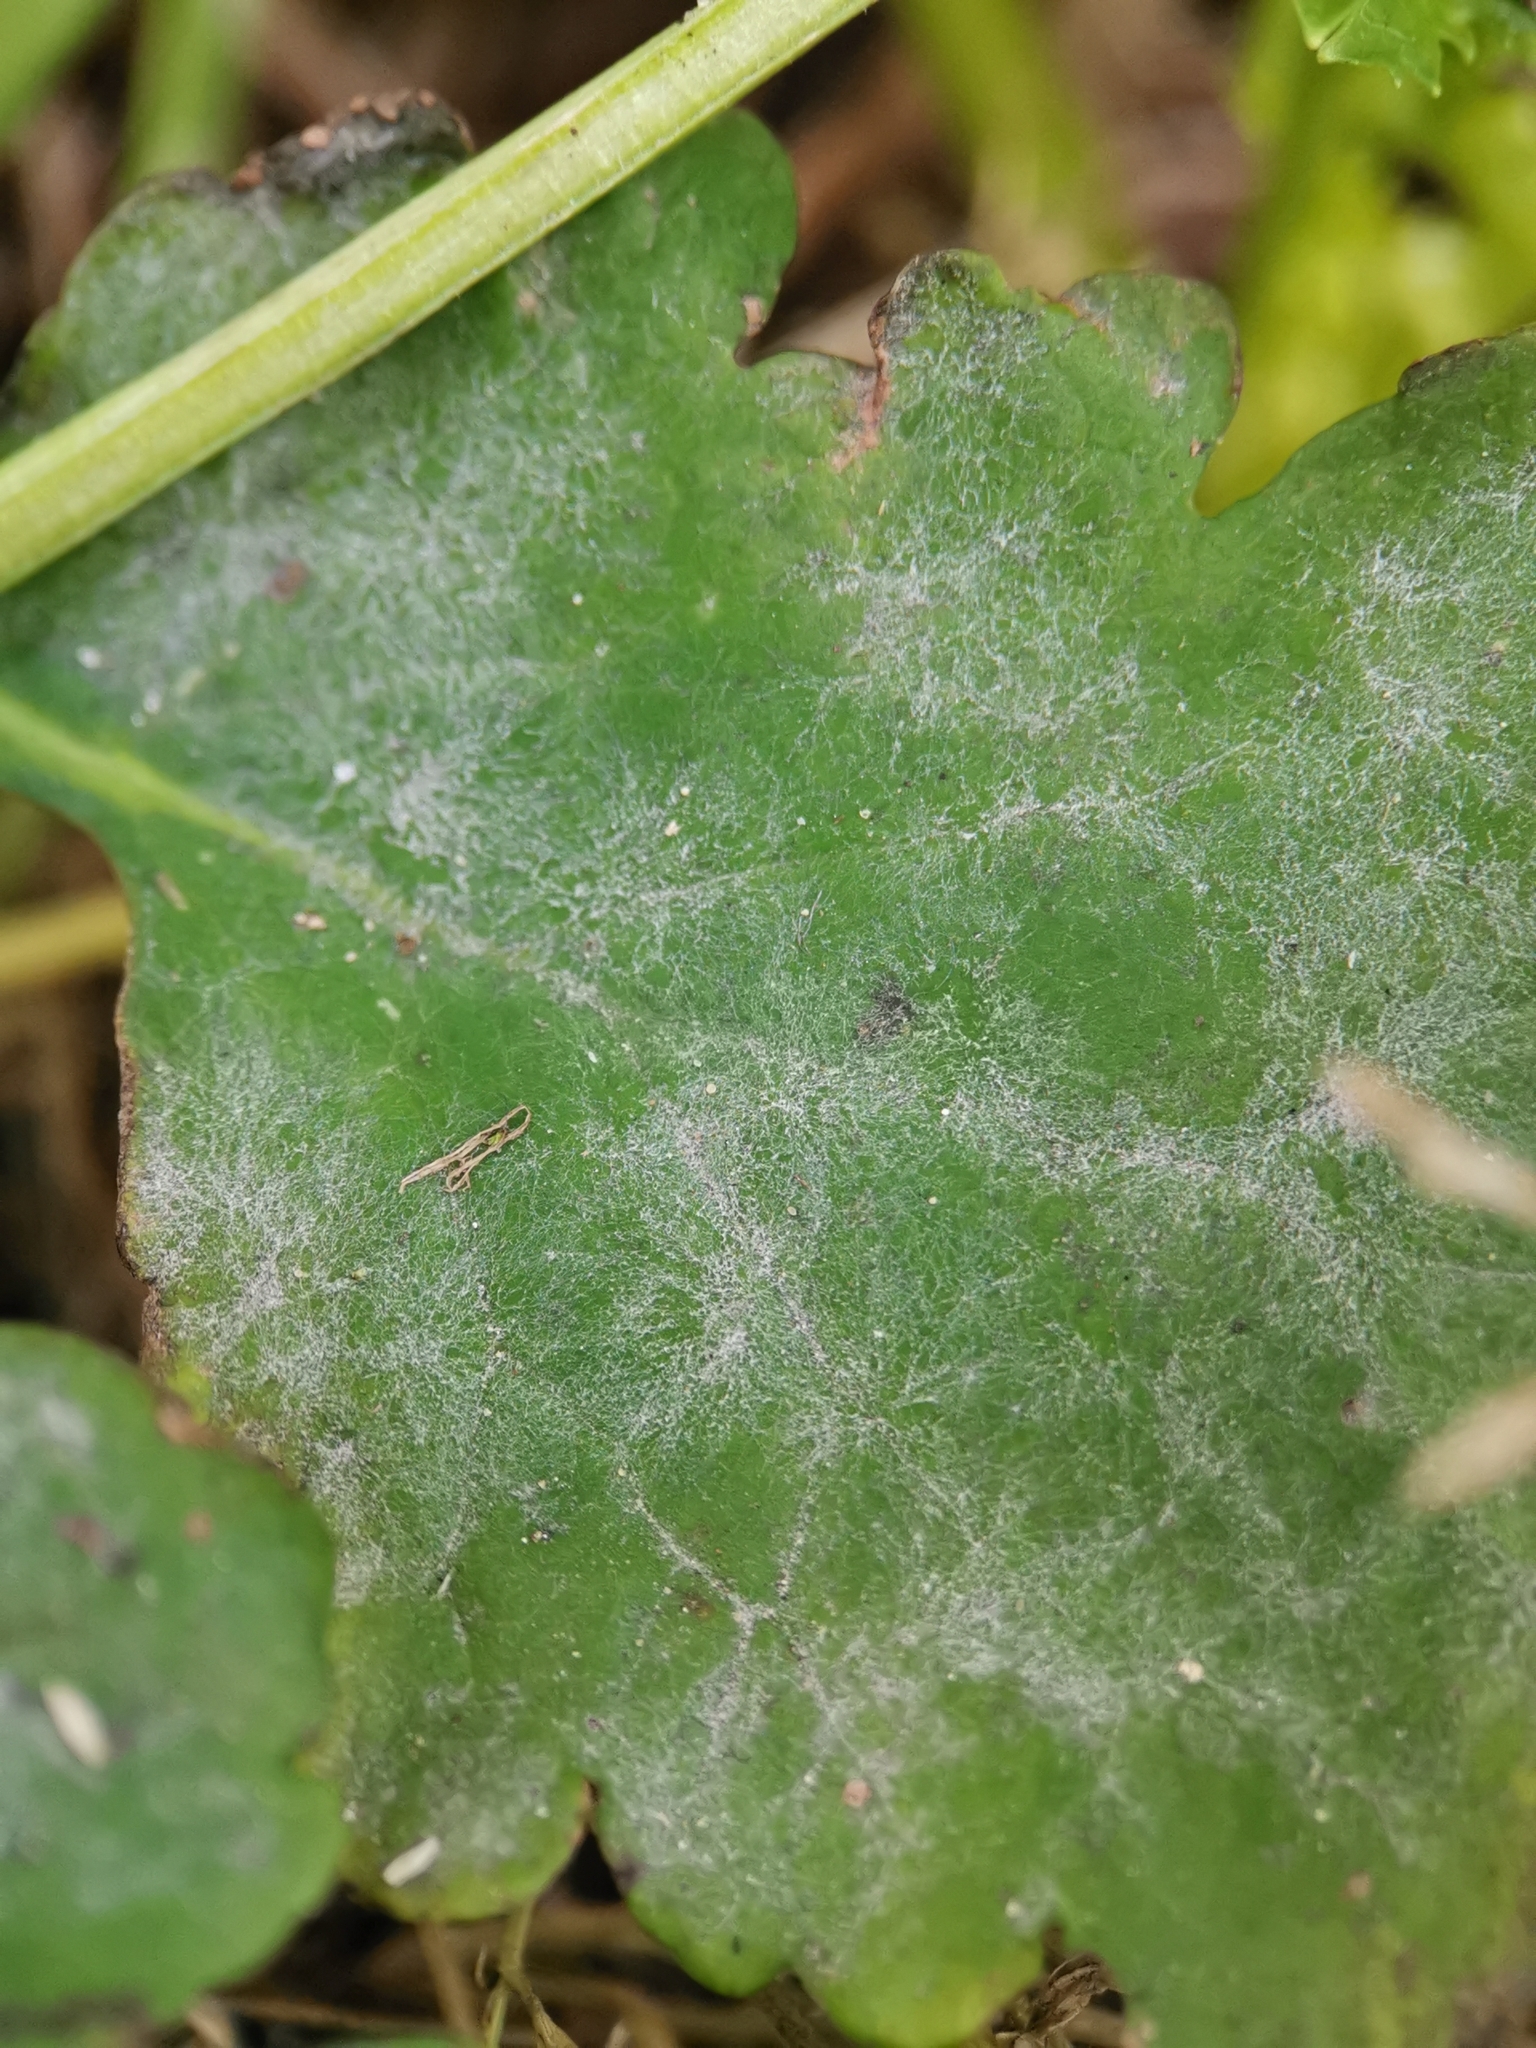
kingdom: Fungi
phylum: Ascomycota
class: Leotiomycetes
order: Helotiales
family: Erysiphaceae
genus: Erysiphe
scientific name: Erysiphe macleayae
